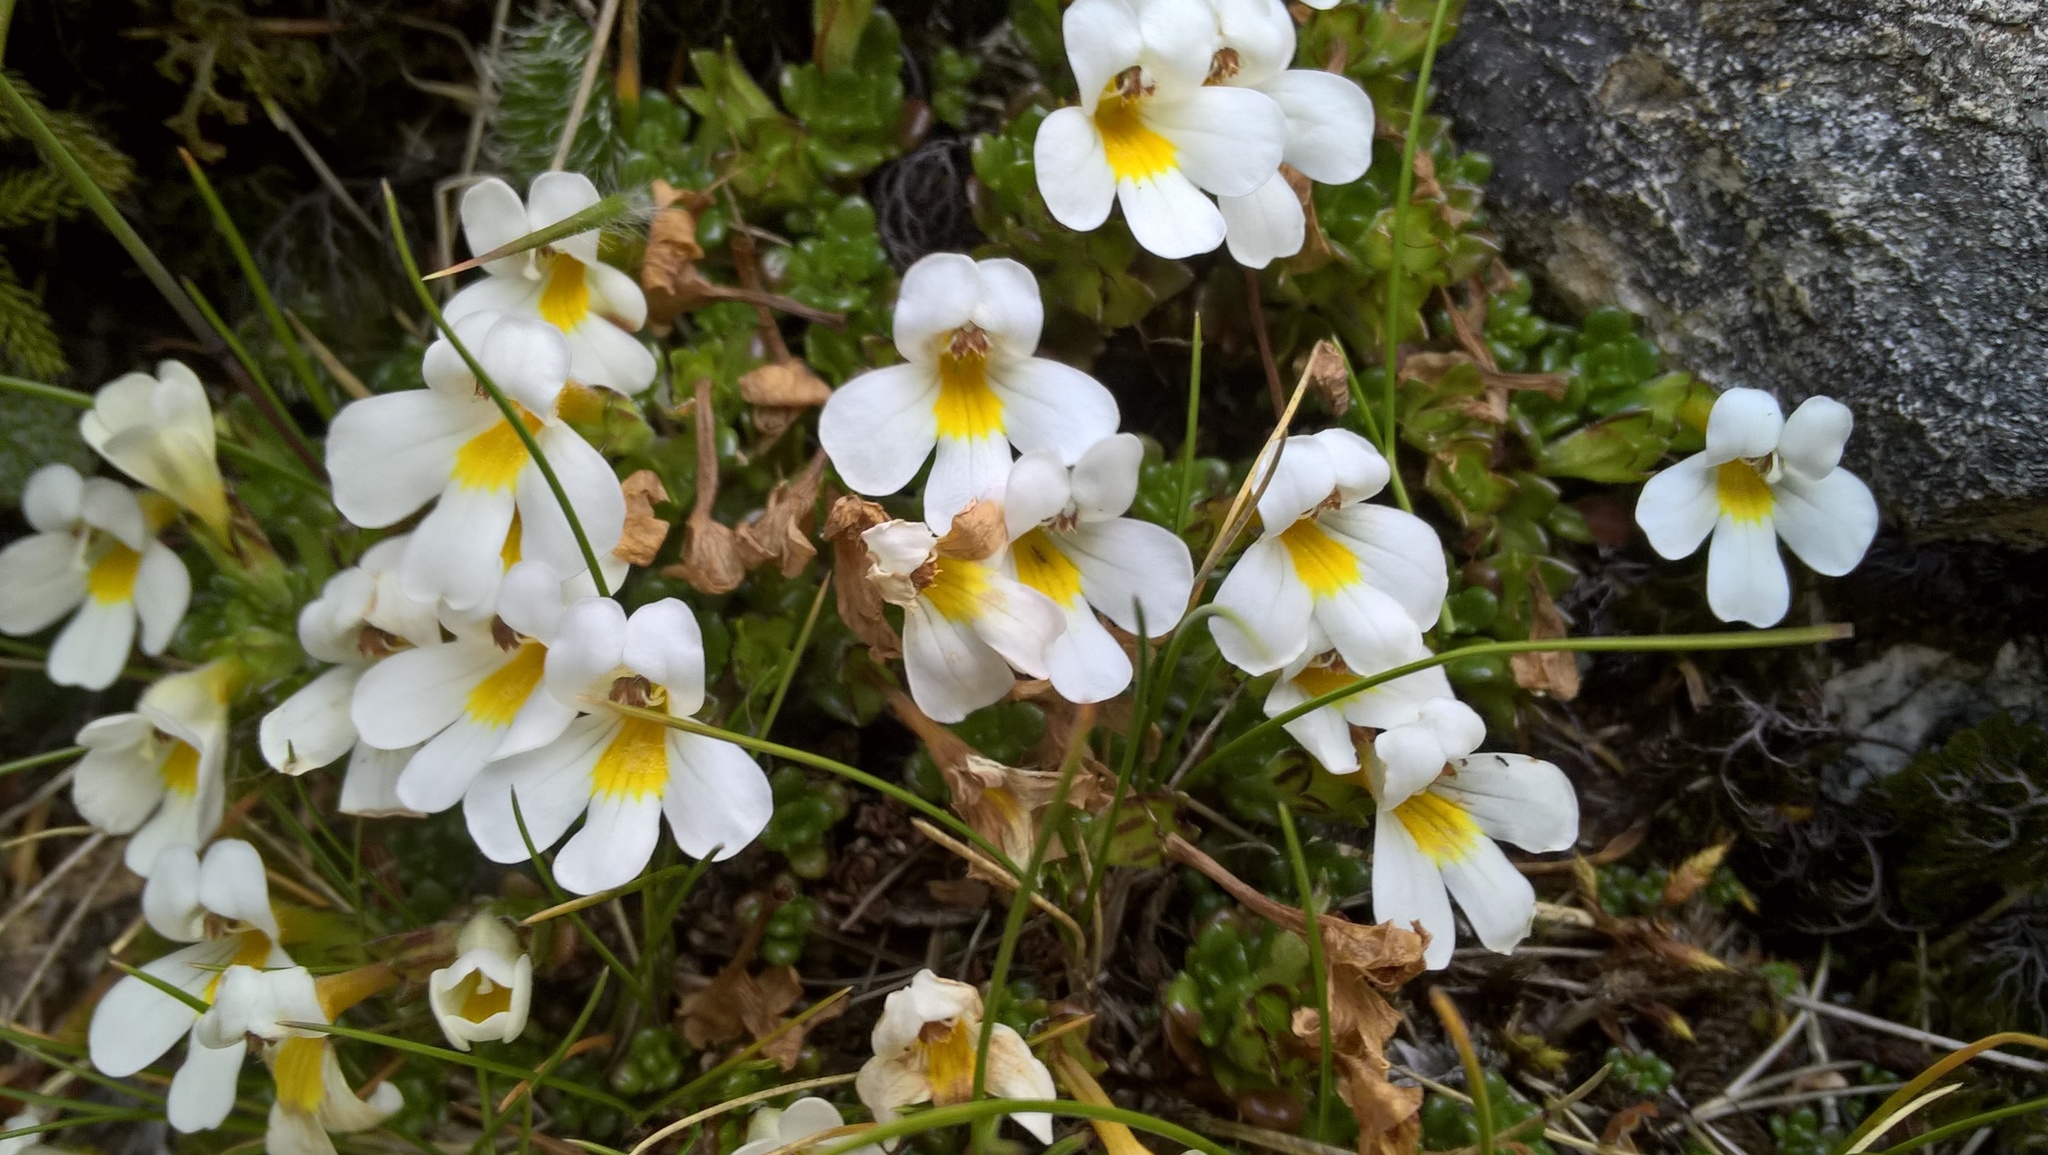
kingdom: Plantae
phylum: Tracheophyta
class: Magnoliopsida
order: Lamiales
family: Orobanchaceae
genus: Euphrasia
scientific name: Euphrasia revoluta
